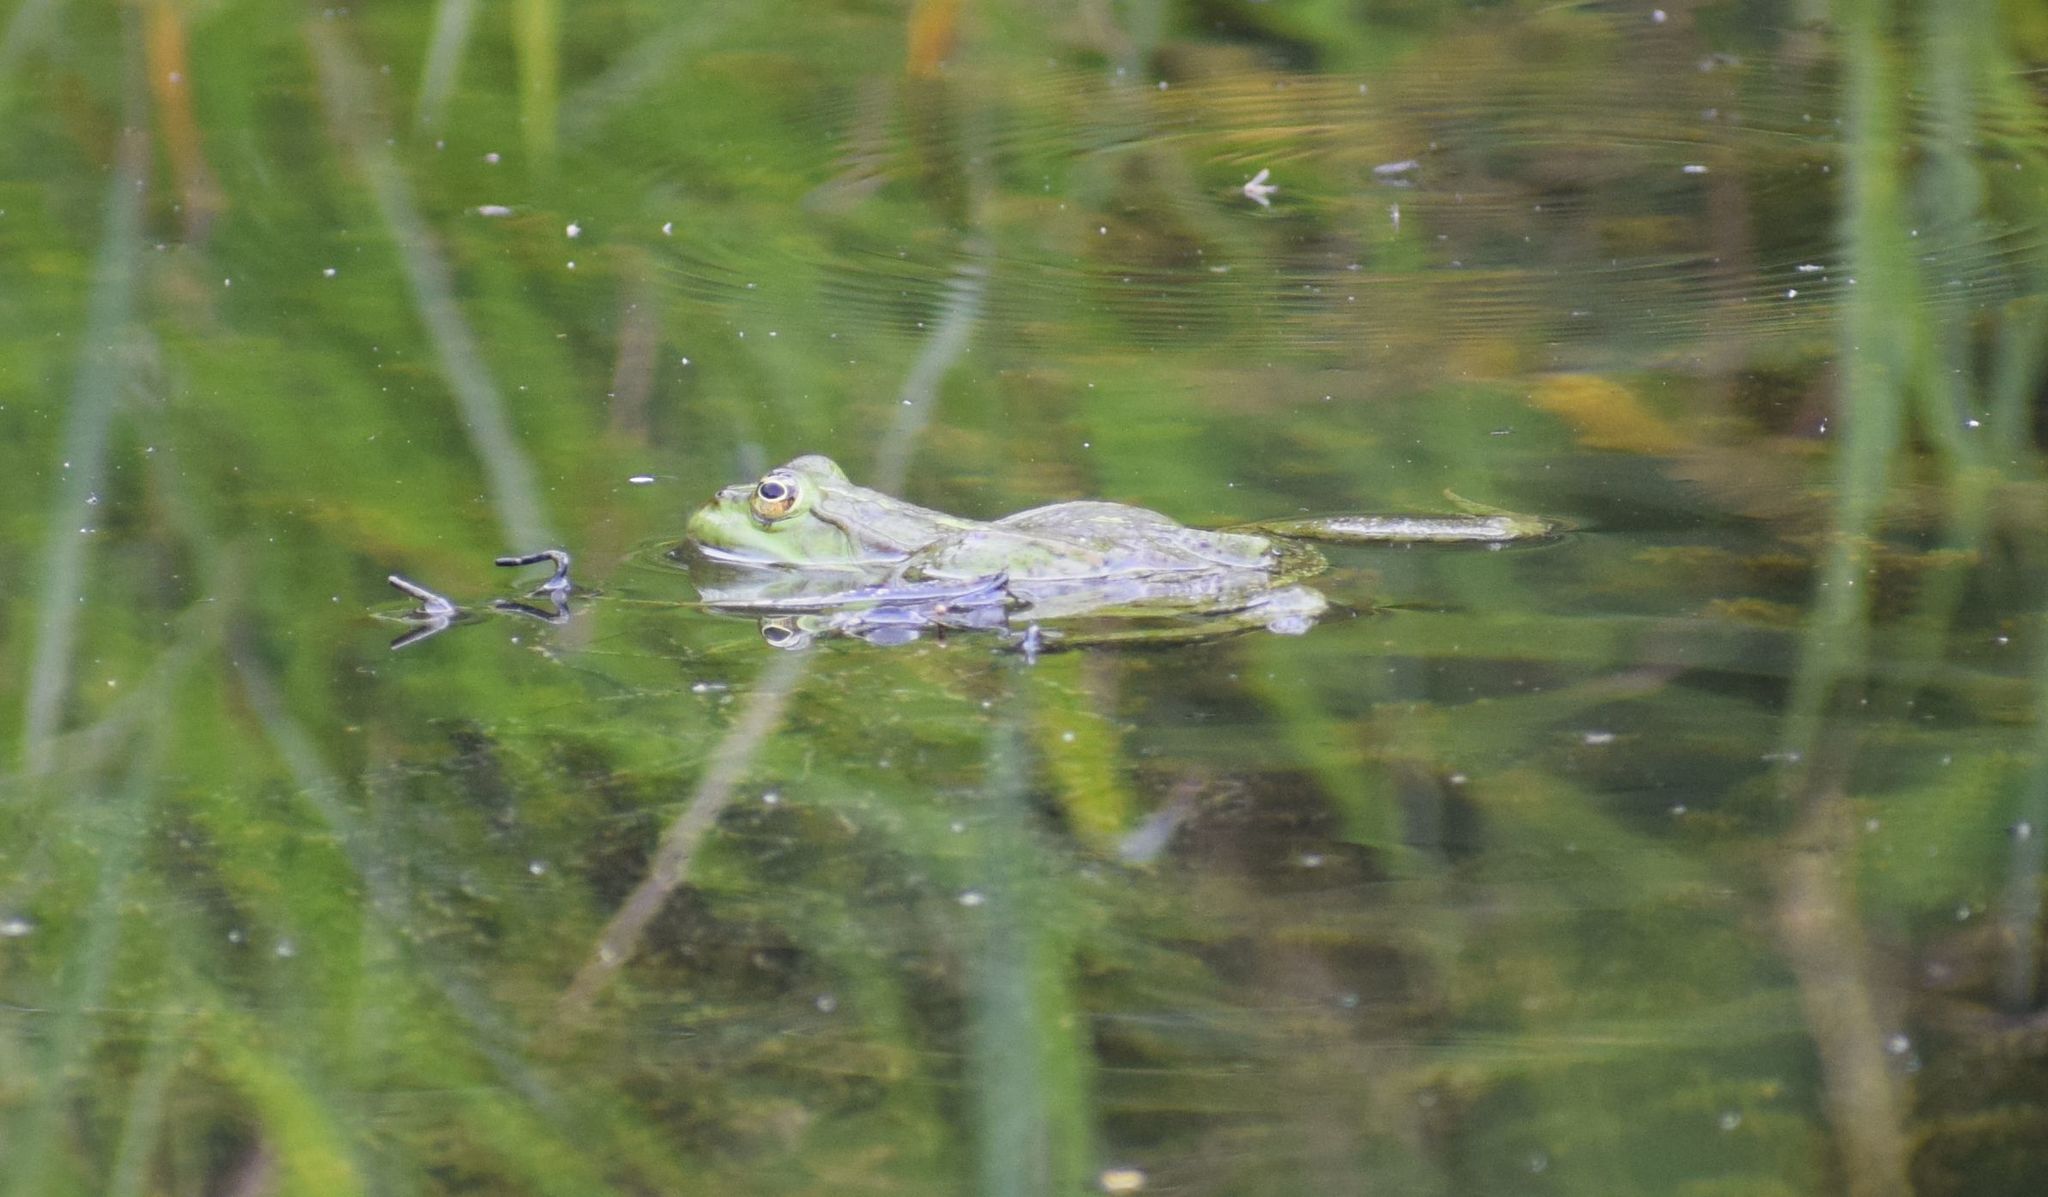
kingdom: Animalia
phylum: Chordata
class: Amphibia
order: Anura
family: Ranidae
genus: Pelophylax
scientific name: Pelophylax
